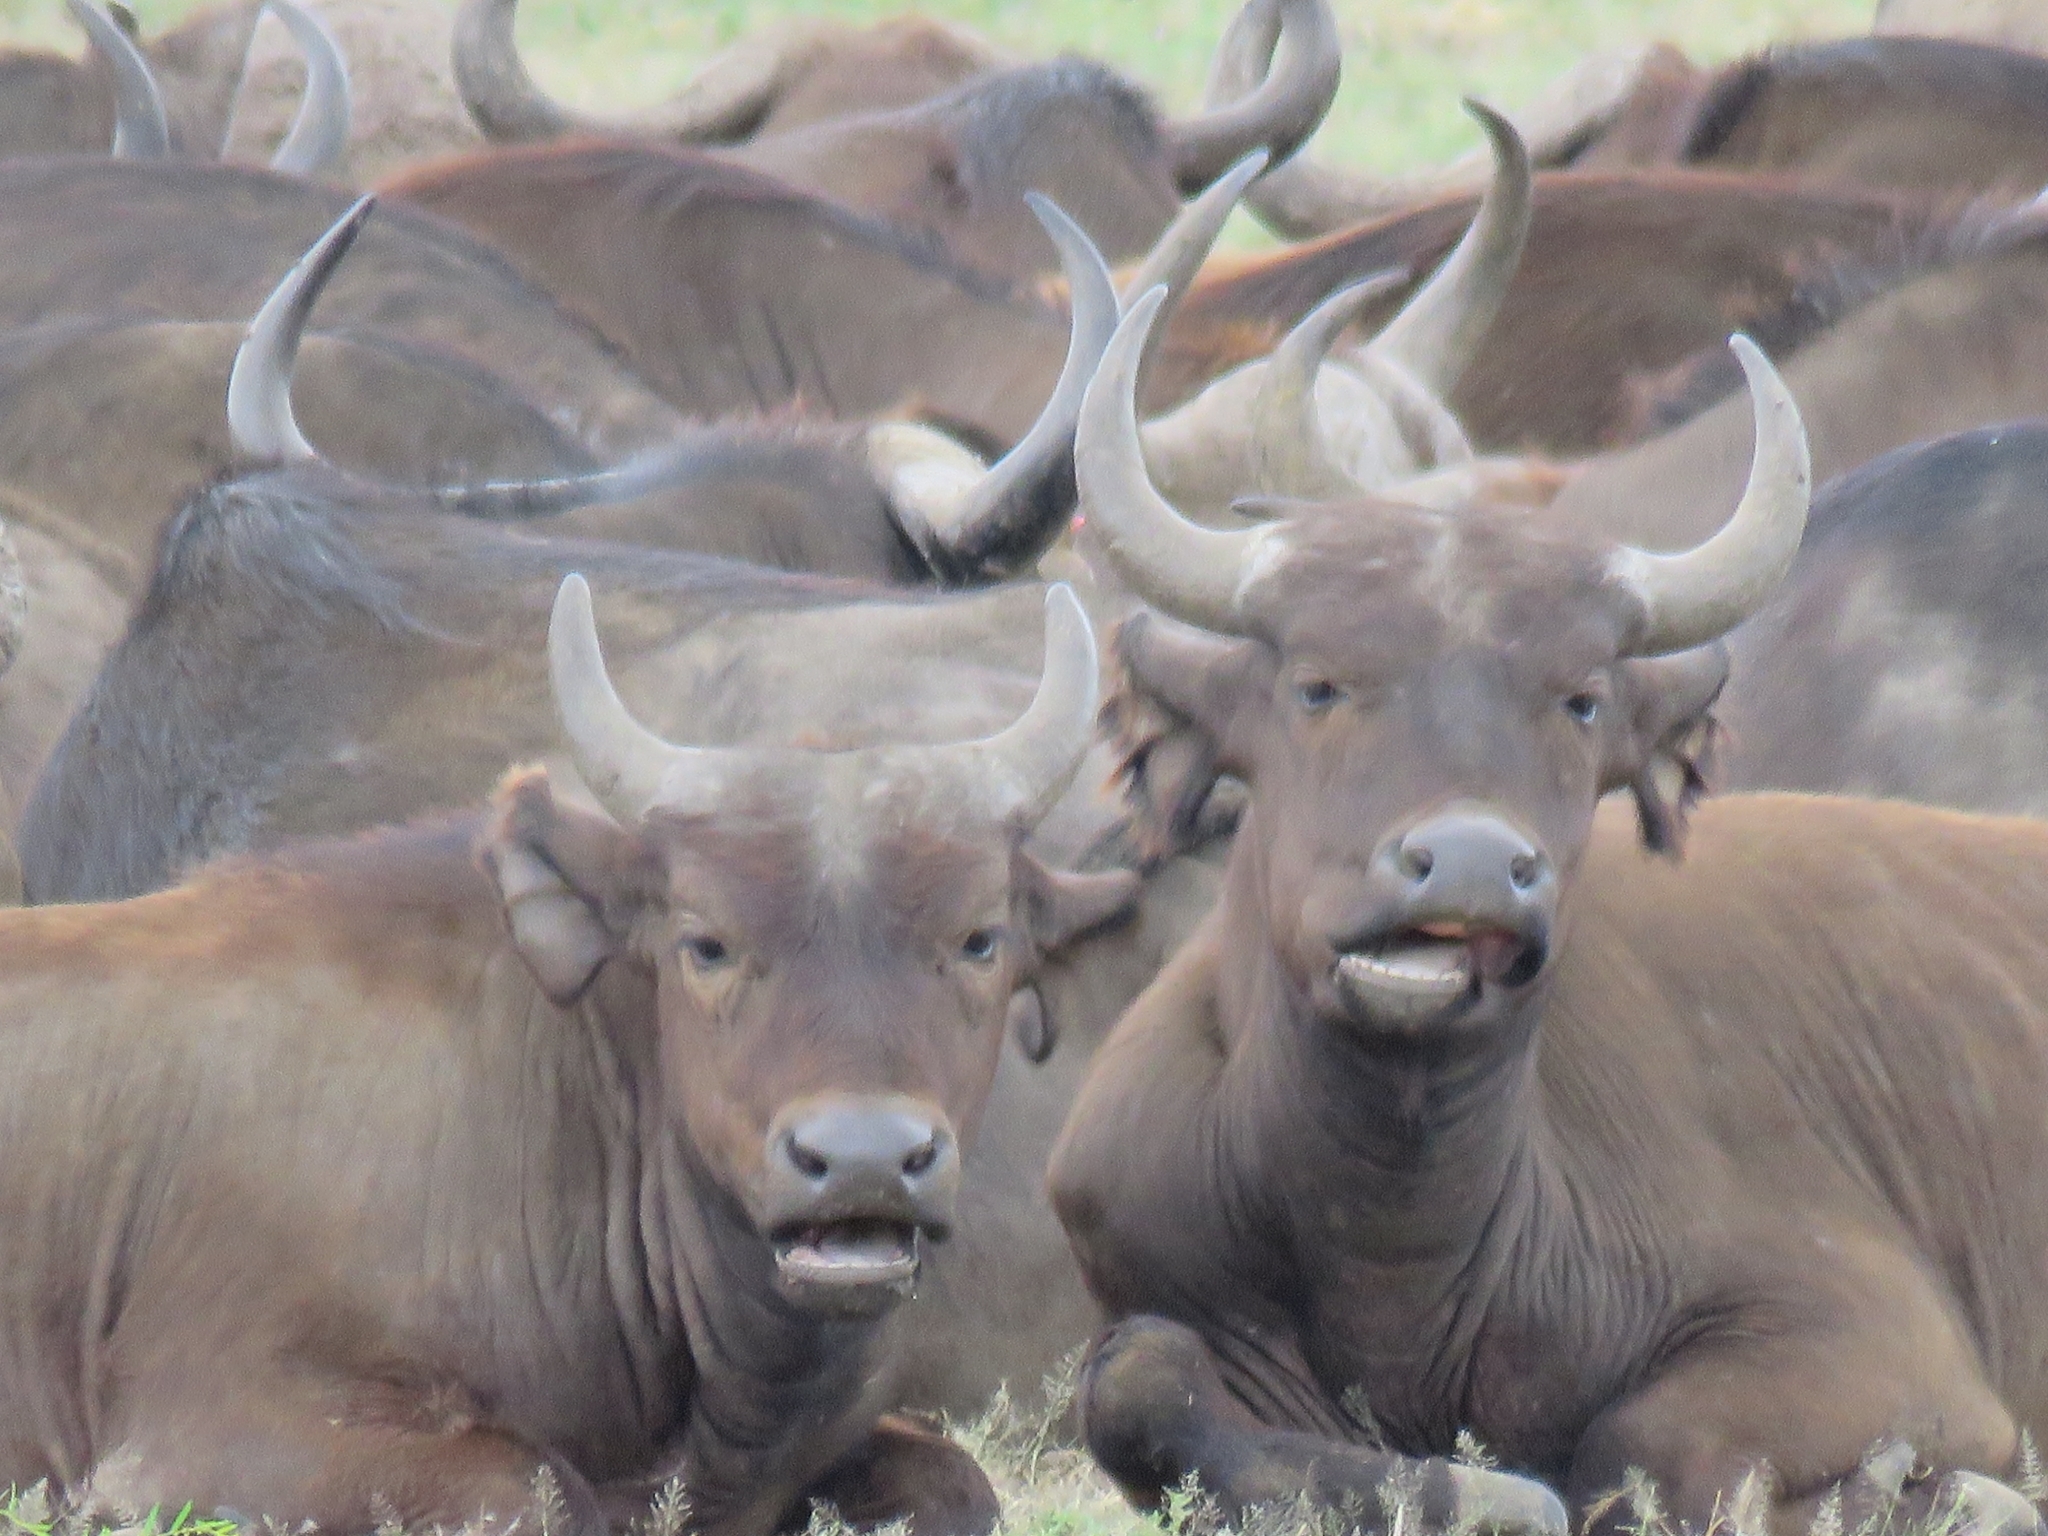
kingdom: Animalia
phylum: Chordata
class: Mammalia
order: Artiodactyla
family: Bovidae
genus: Syncerus
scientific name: Syncerus caffer
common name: African buffalo
